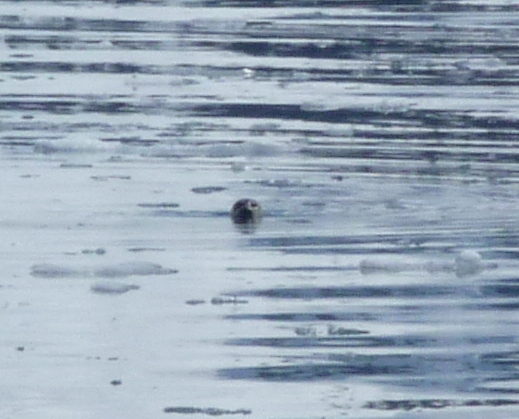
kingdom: Animalia
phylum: Chordata
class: Mammalia
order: Carnivora
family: Phocidae
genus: Phoca
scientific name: Phoca vitulina
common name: Harbor seal
